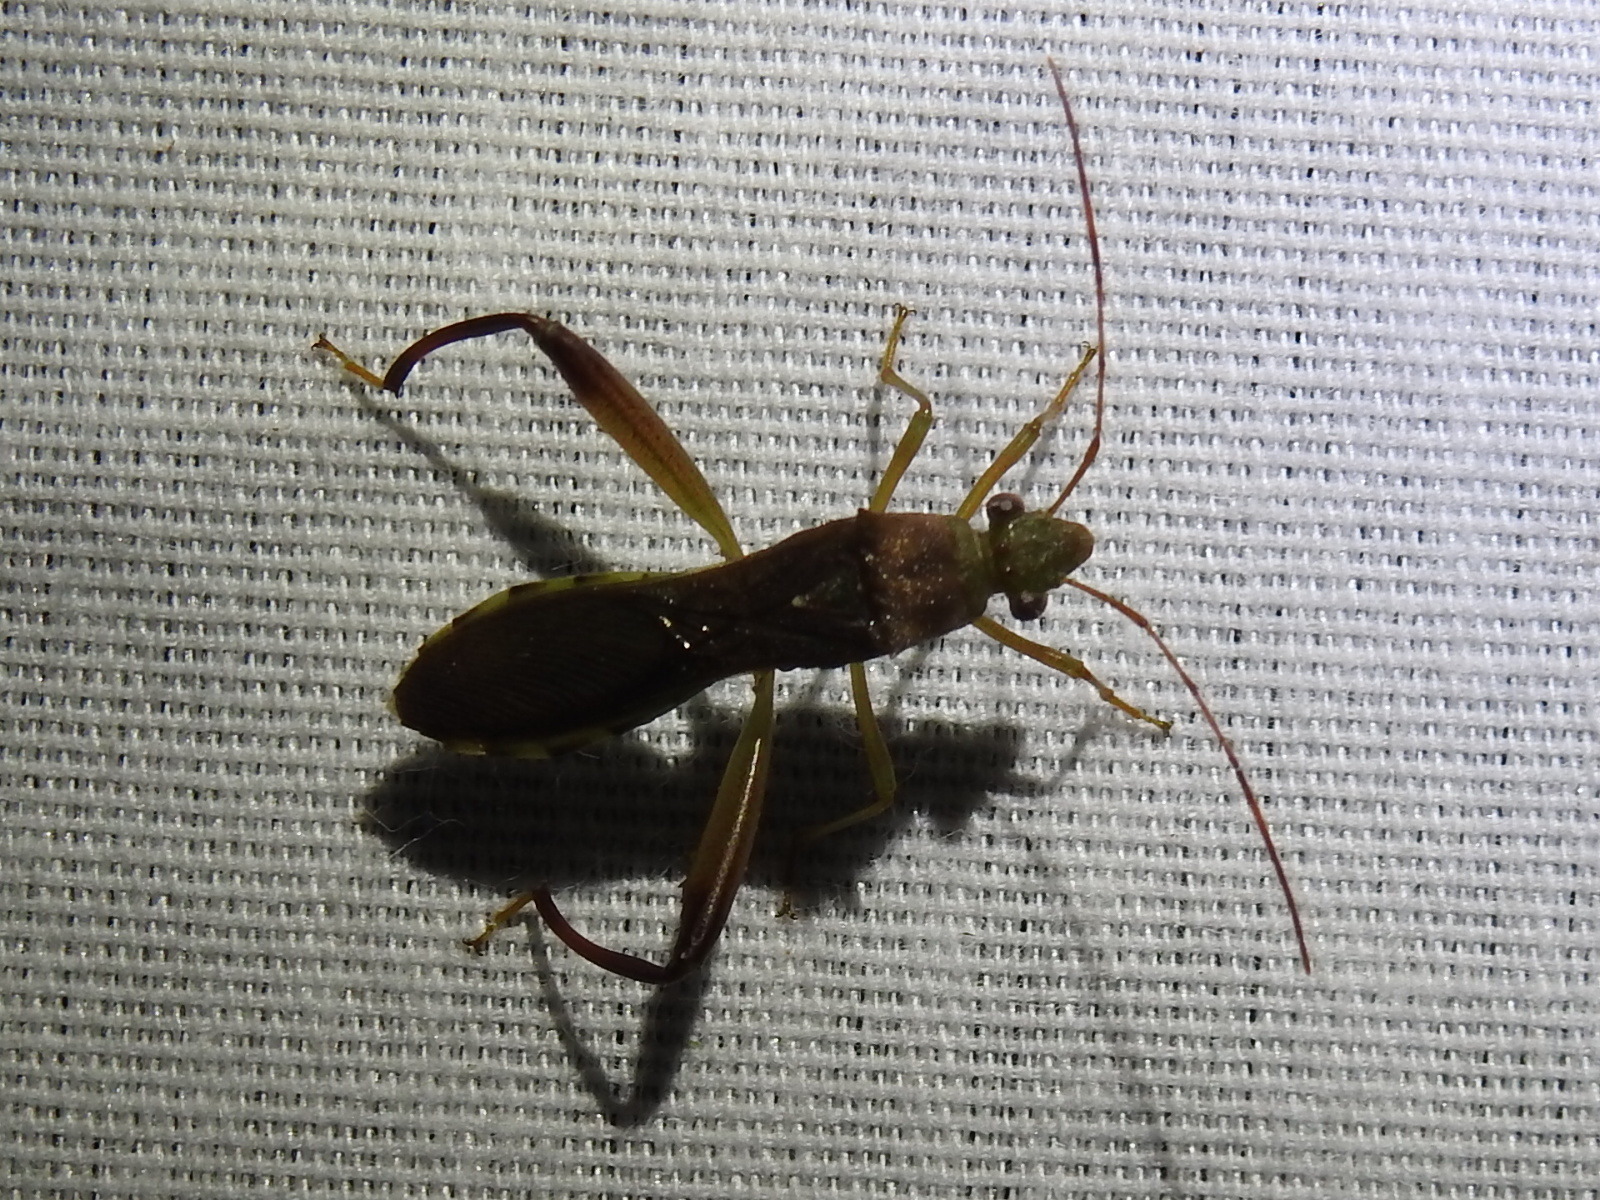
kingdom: Animalia
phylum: Arthropoda
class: Insecta
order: Hemiptera
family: Alydidae
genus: Hyalymenus
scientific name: Hyalymenus tarsatus
